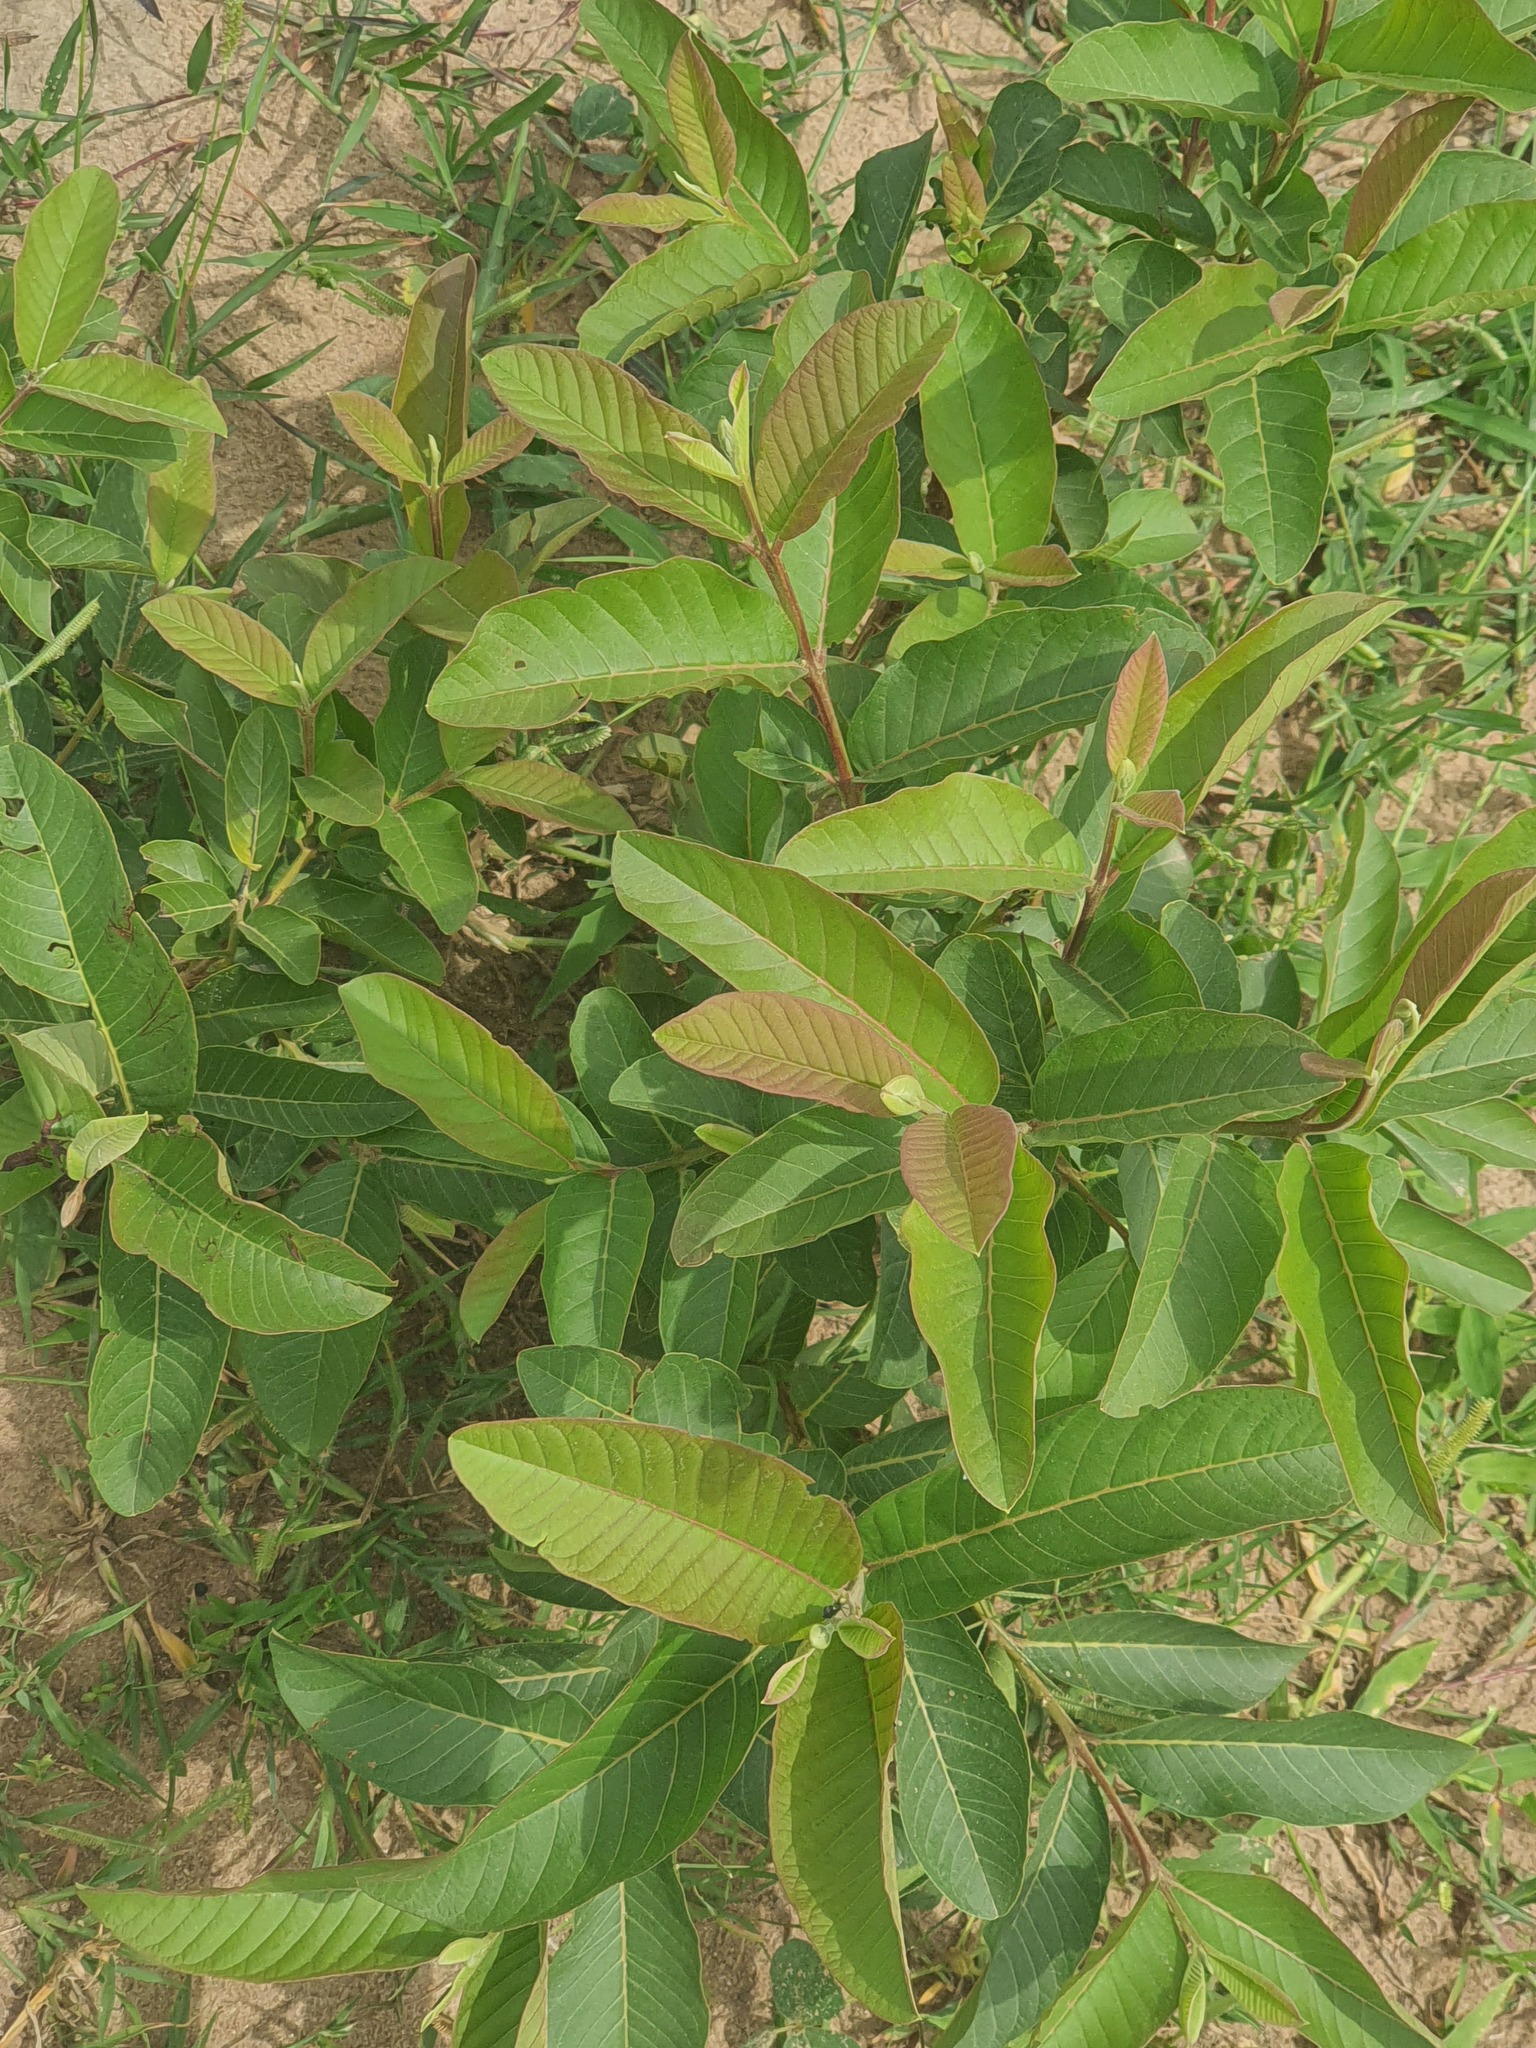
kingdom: Plantae
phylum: Tracheophyta
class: Magnoliopsida
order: Myrtales
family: Myrtaceae
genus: Psidium
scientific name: Psidium guajava
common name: Guava
